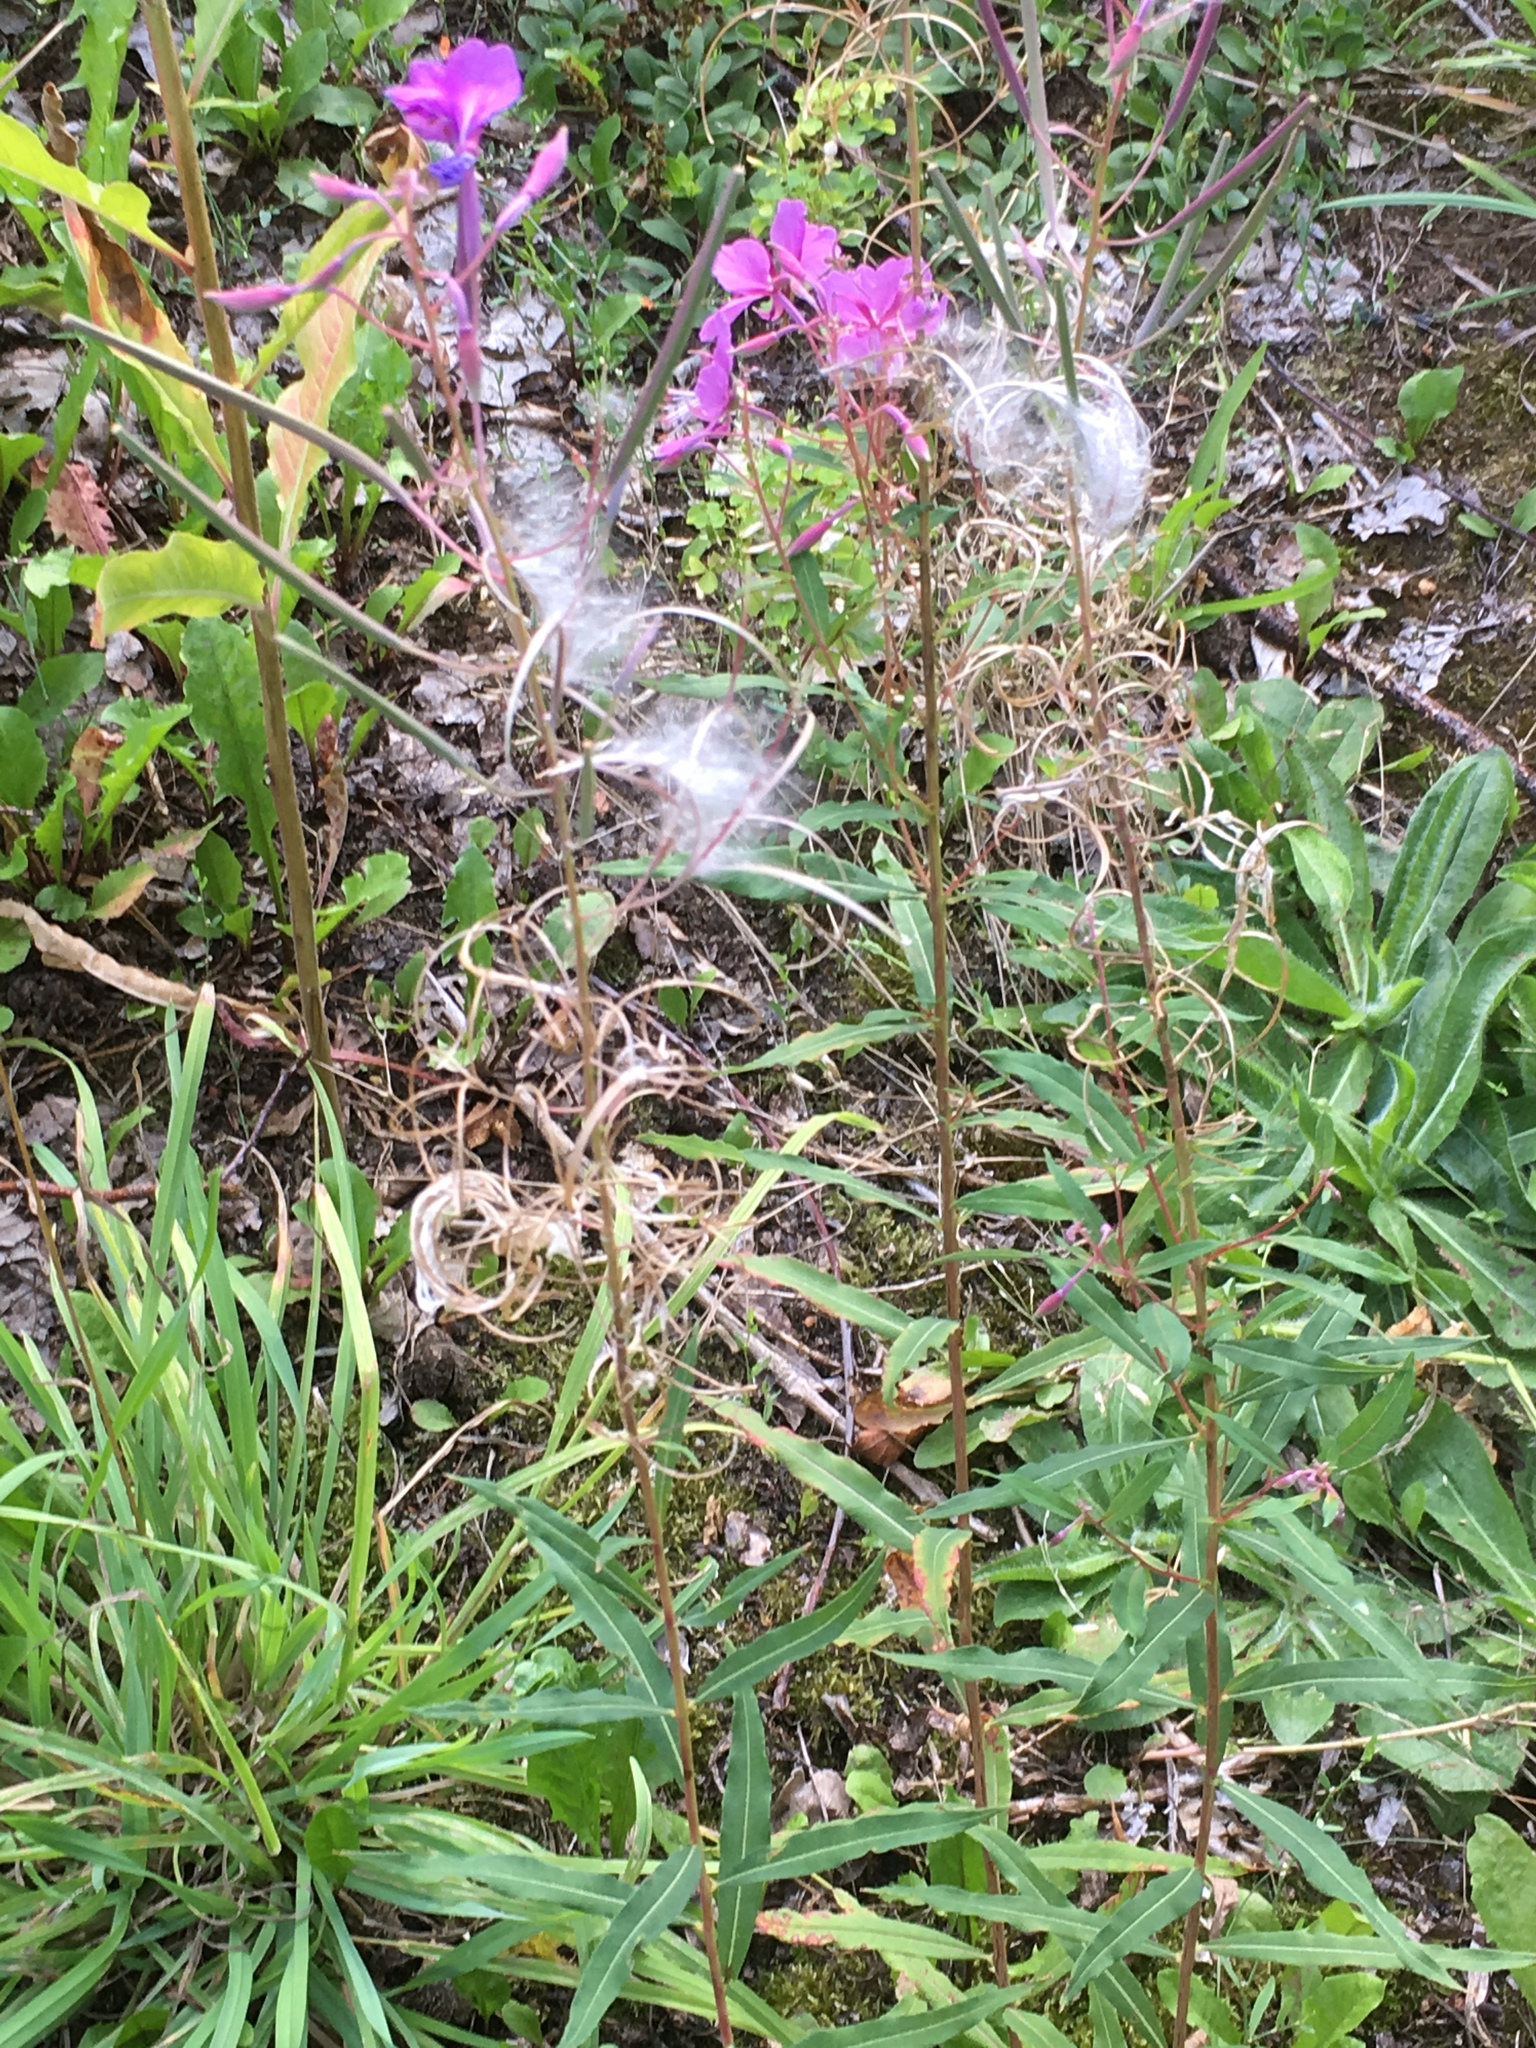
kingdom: Plantae
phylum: Tracheophyta
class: Magnoliopsida
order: Myrtales
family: Onagraceae
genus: Chamaenerion
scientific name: Chamaenerion angustifolium
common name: Fireweed
